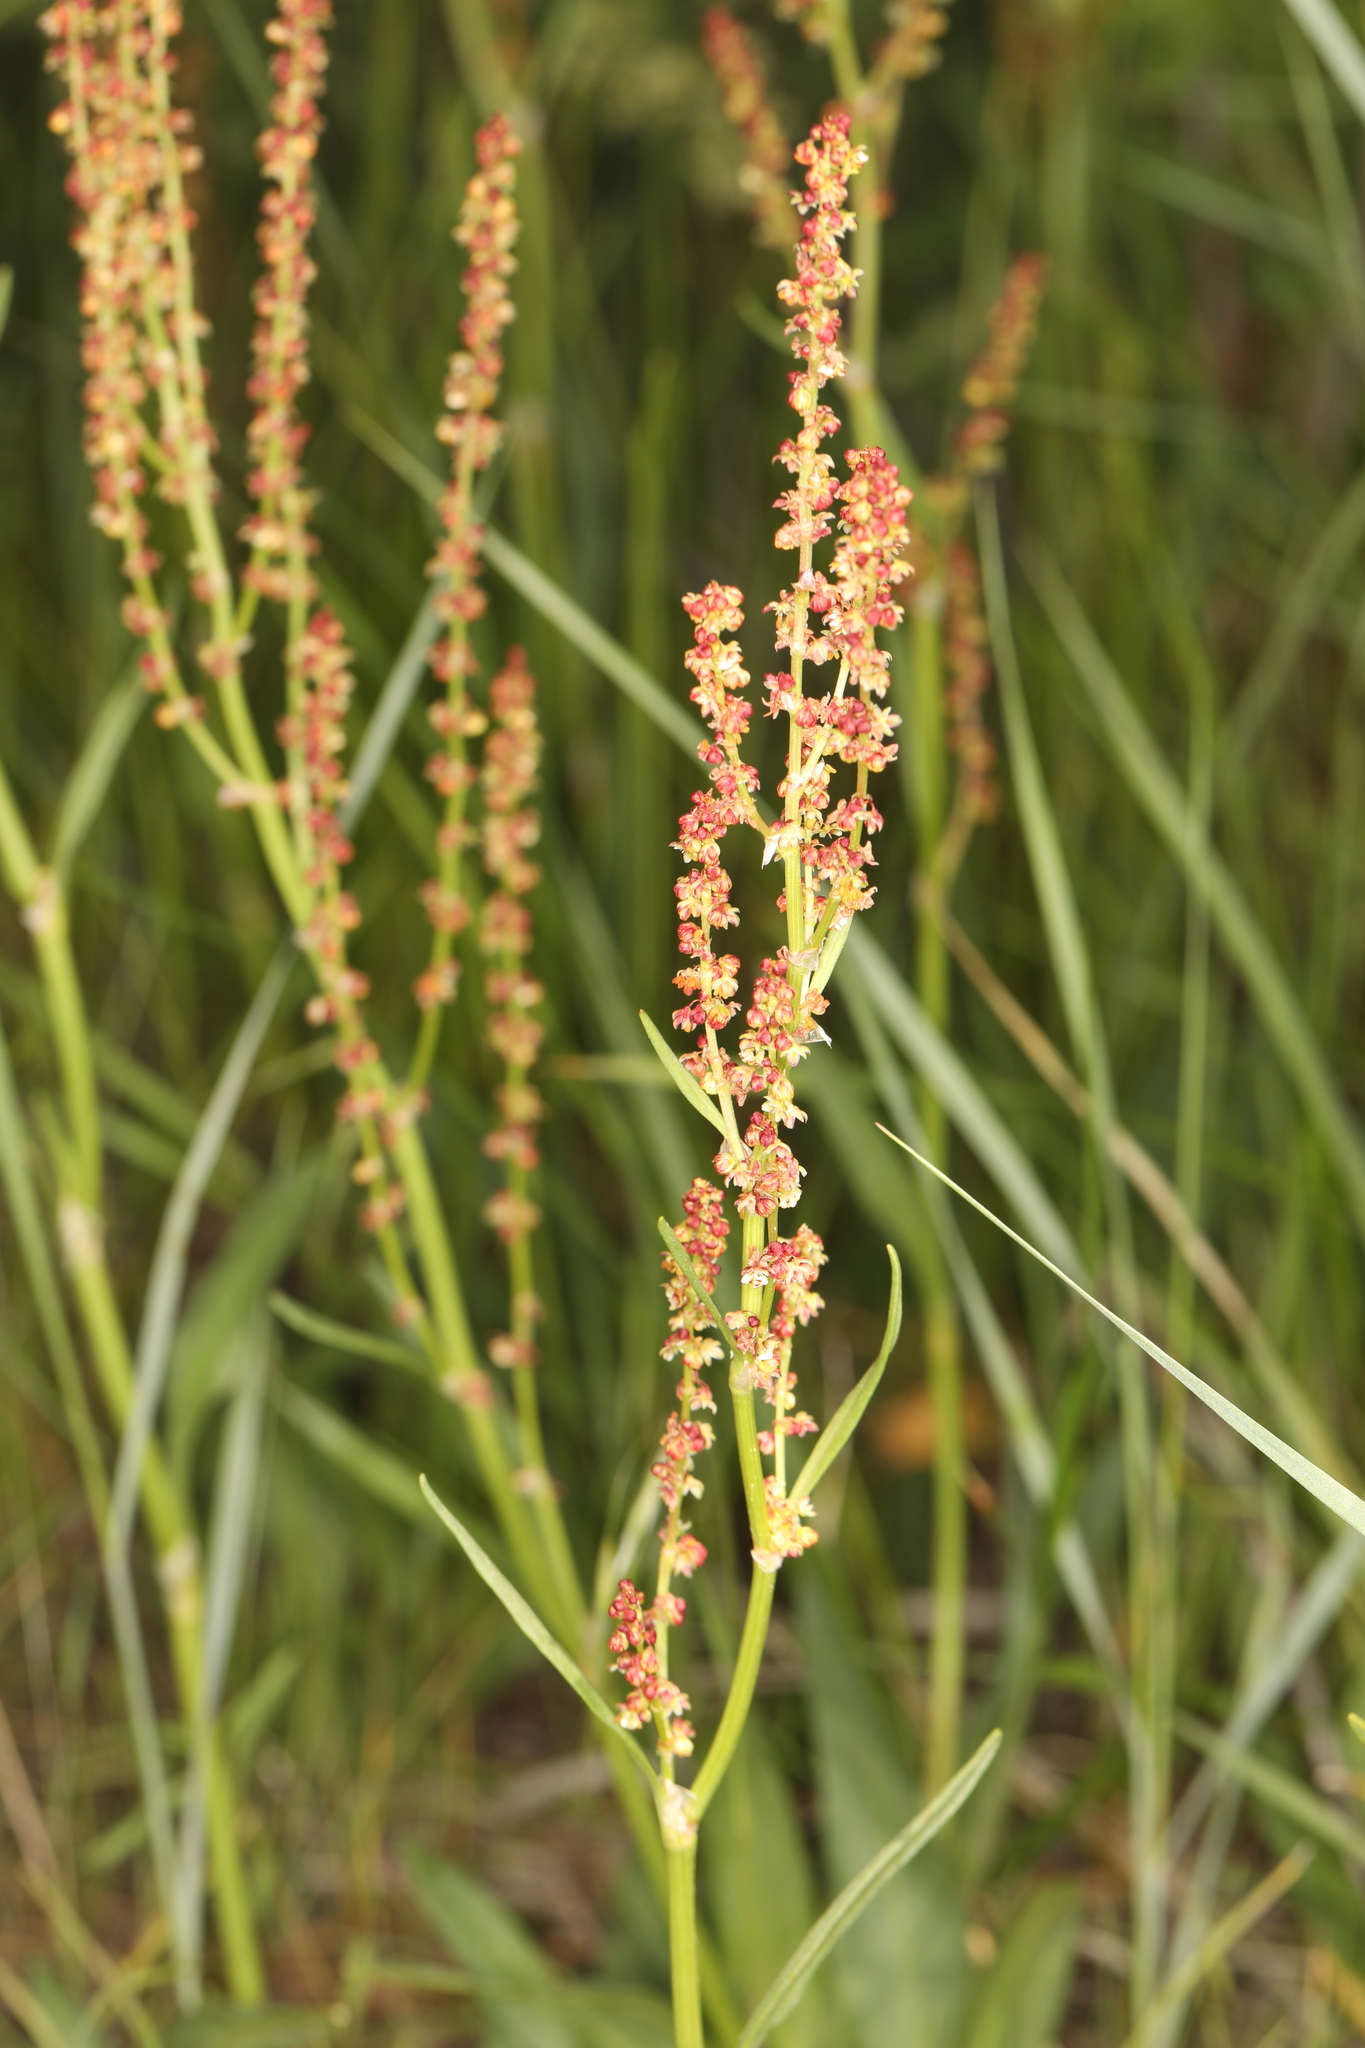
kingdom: Plantae
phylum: Tracheophyta
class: Magnoliopsida
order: Caryophyllales
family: Polygonaceae
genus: Rumex
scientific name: Rumex acetosella
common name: Common sheep sorrel
